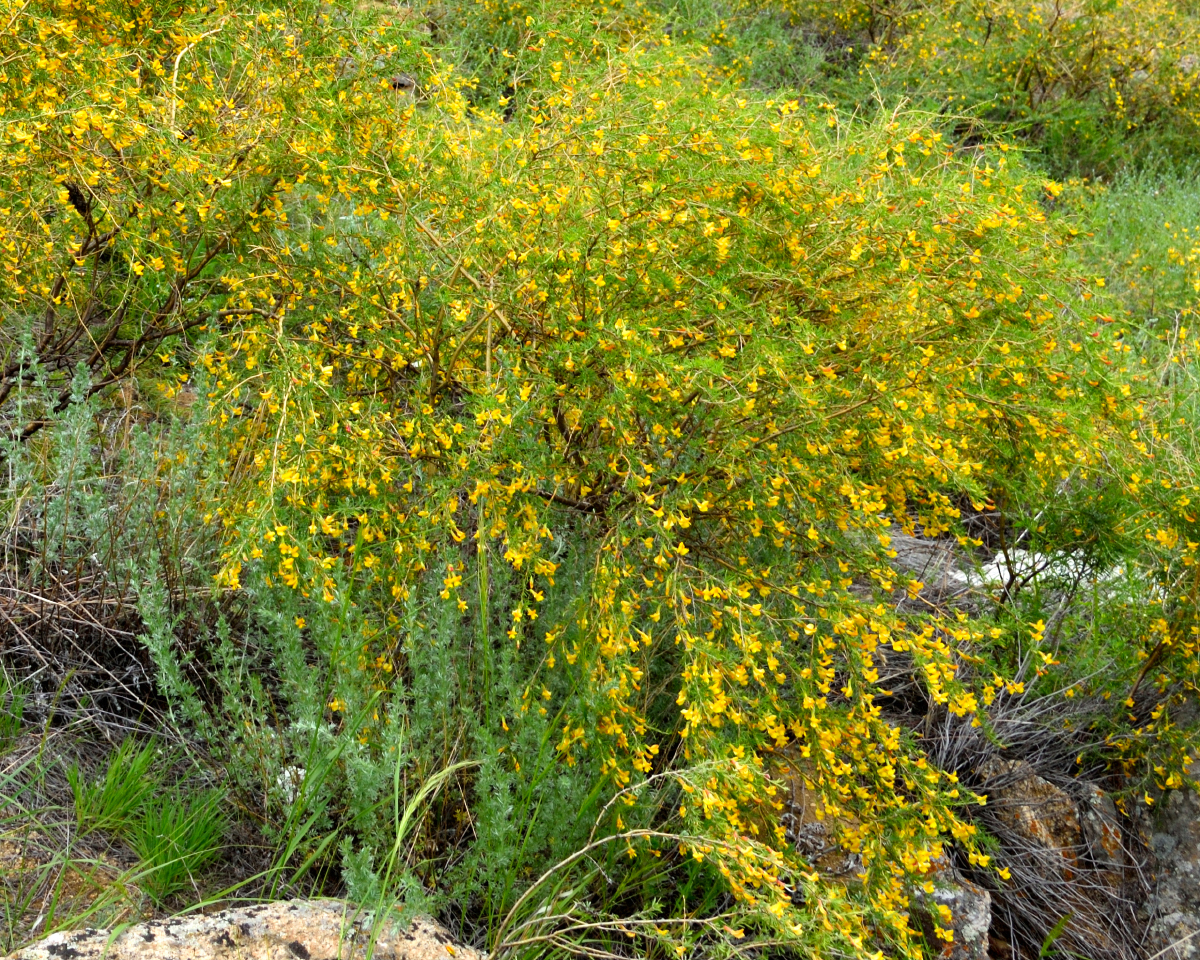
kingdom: Plantae
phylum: Tracheophyta
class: Magnoliopsida
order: Fabales
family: Fabaceae
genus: Caragana
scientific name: Caragana pygmaea
